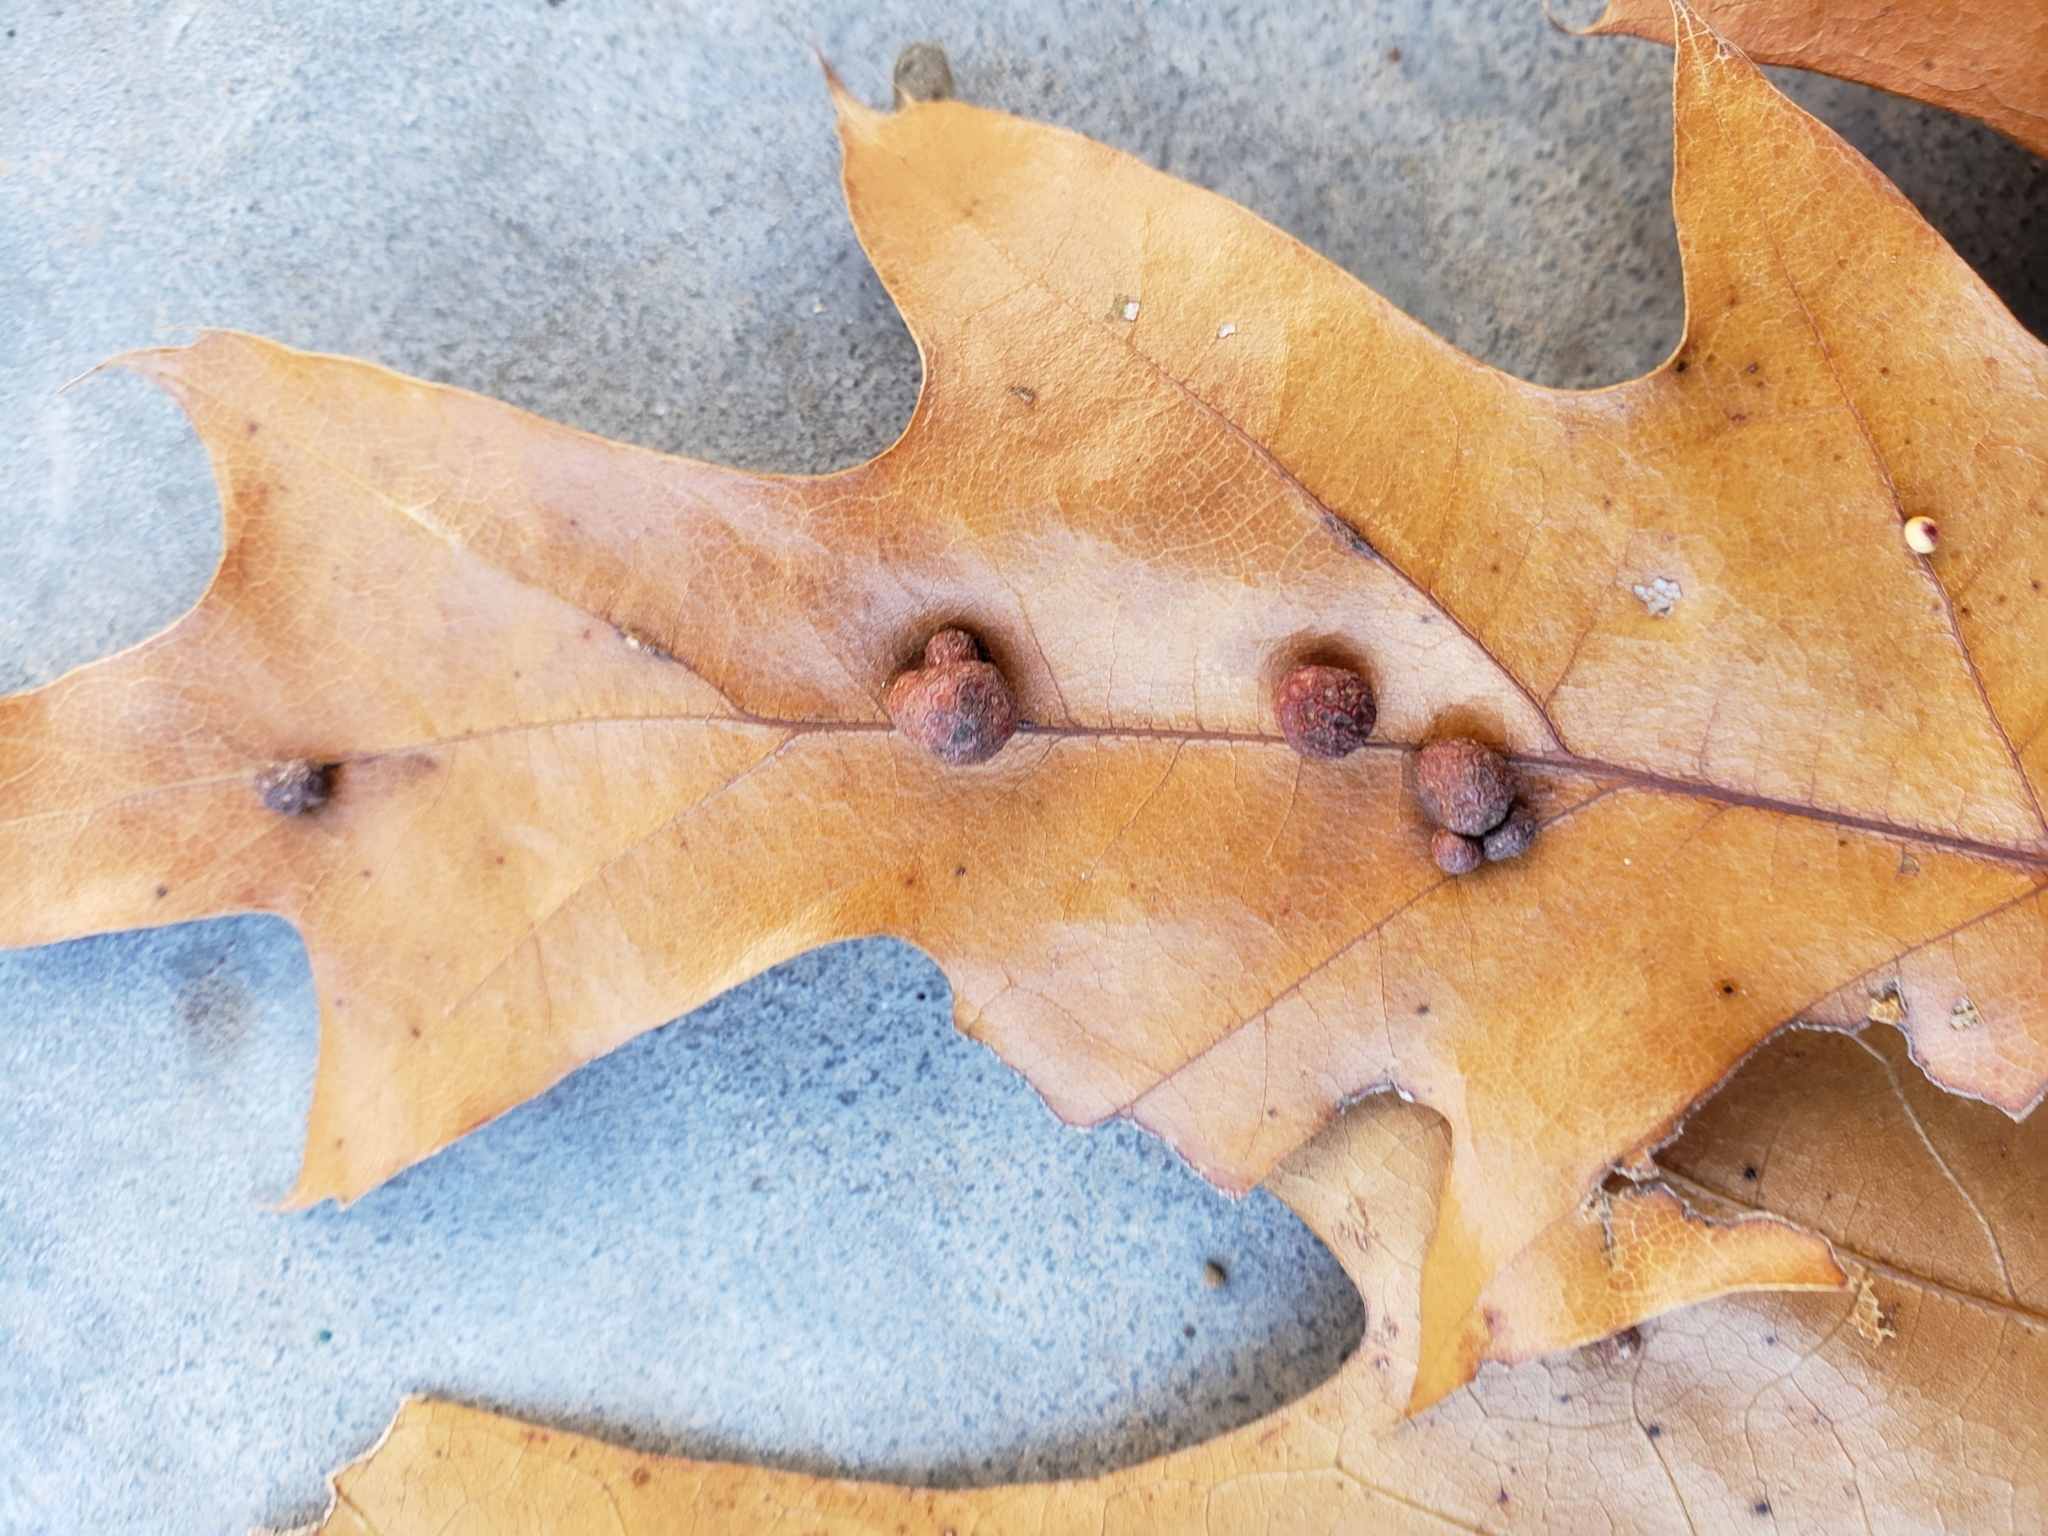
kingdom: Animalia
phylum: Arthropoda
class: Insecta
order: Diptera
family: Cecidomyiidae
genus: Polystepha
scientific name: Polystepha pilulae
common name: Oak leaf gall midge
